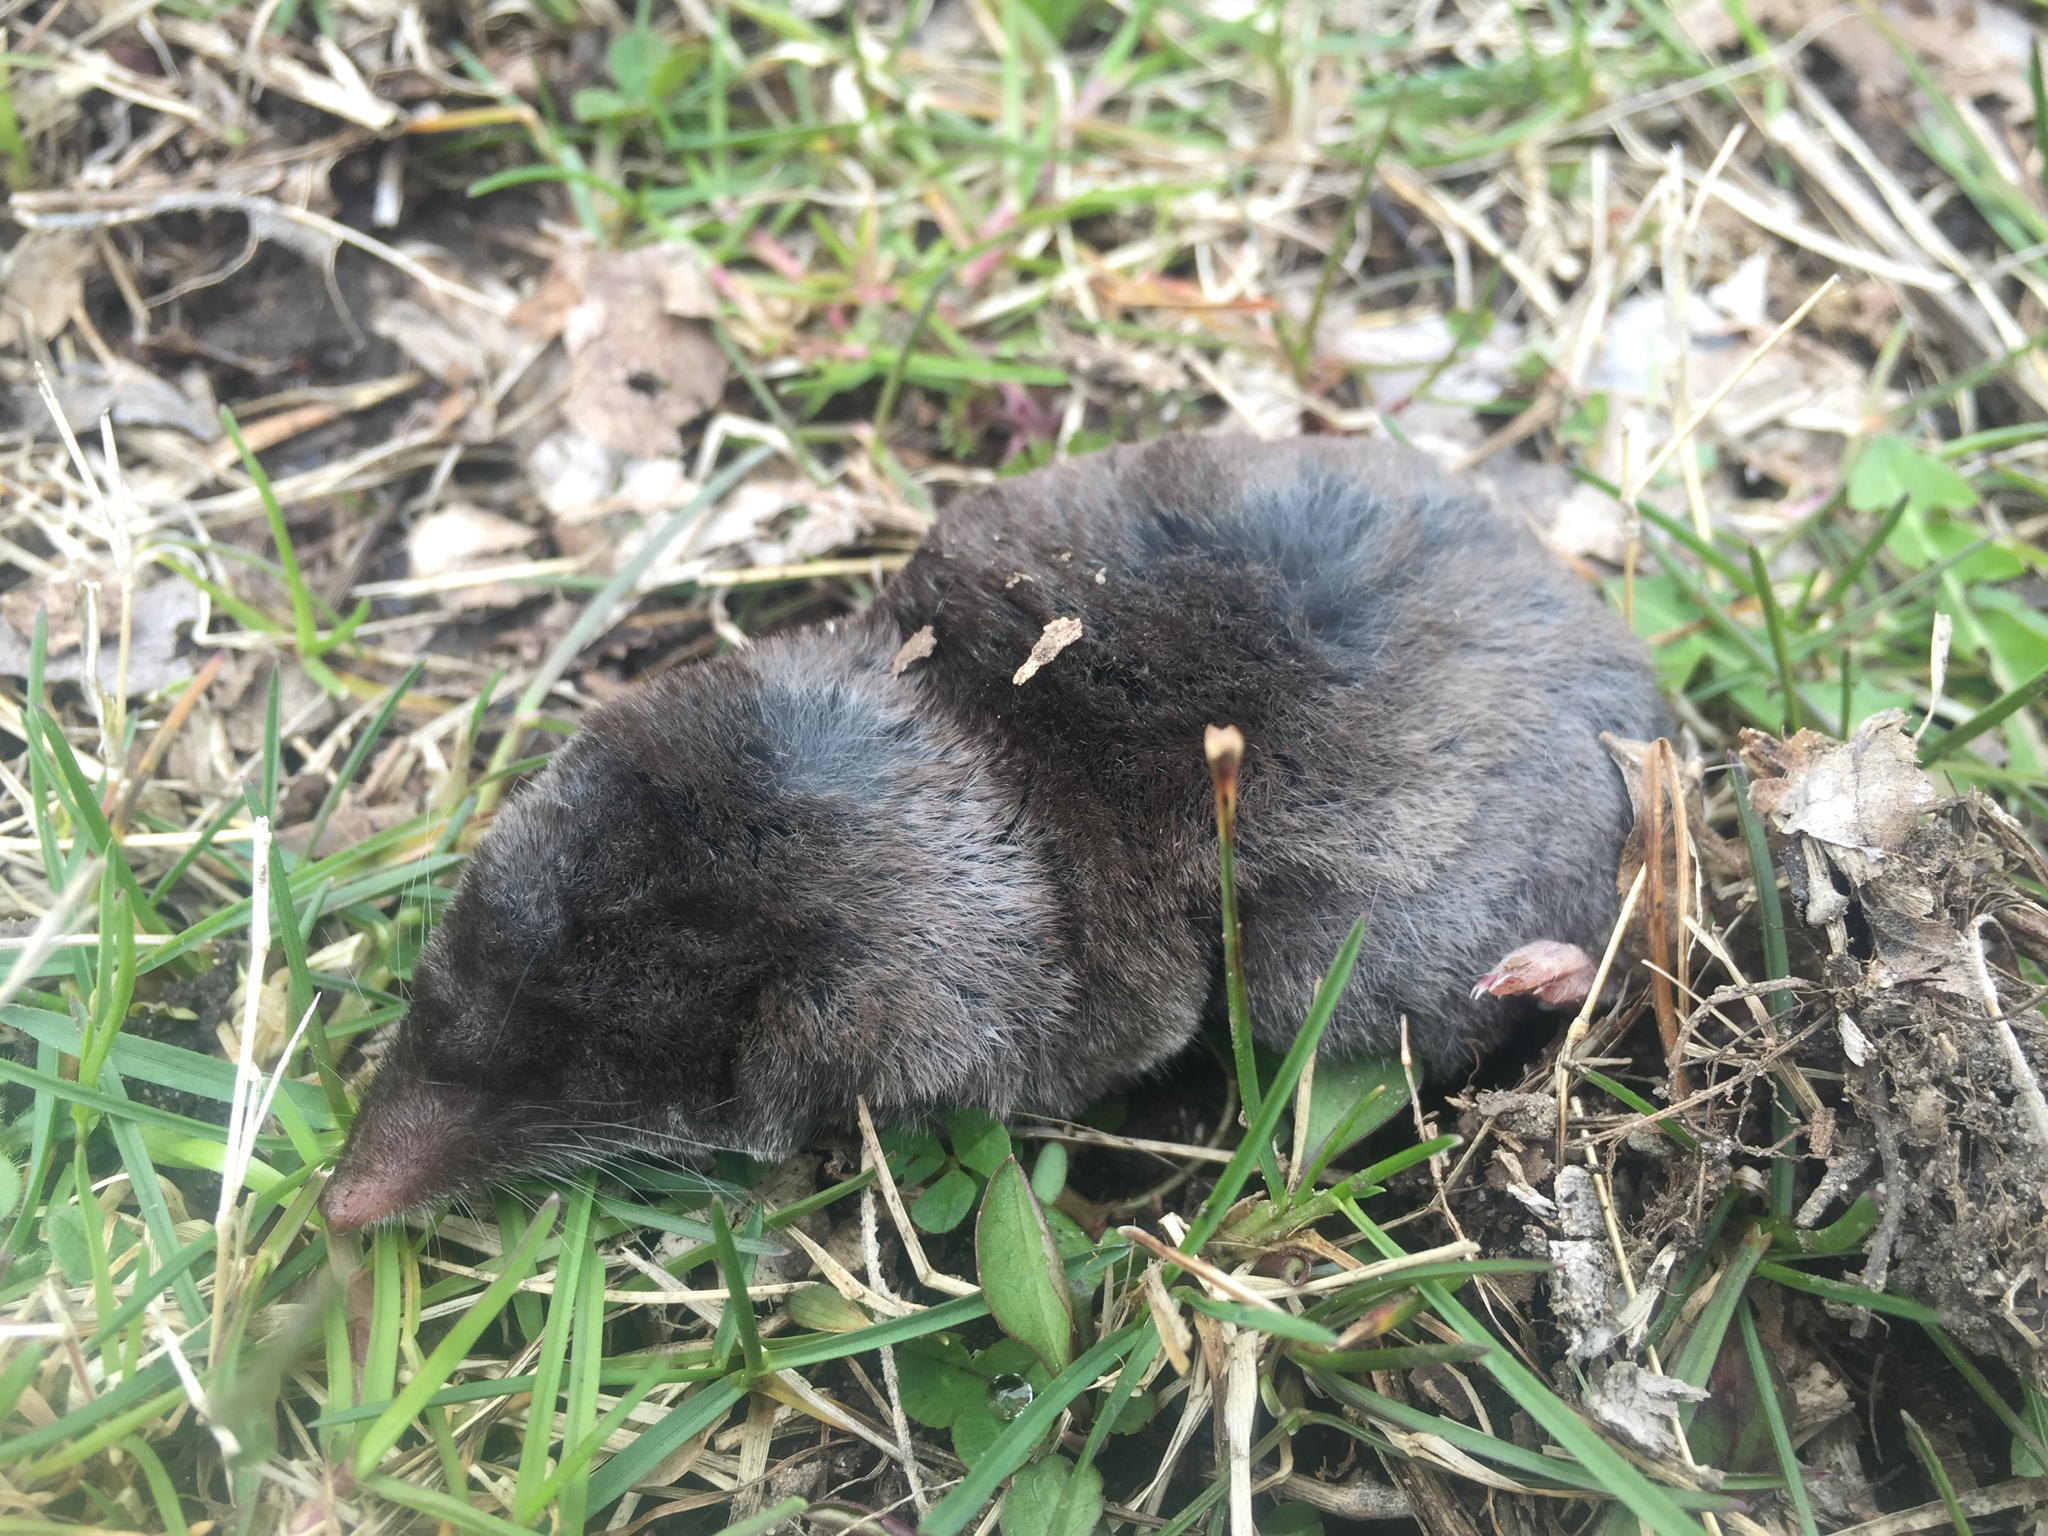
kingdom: Animalia
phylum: Chordata
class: Mammalia
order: Soricomorpha
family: Soricidae
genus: Blarina
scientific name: Blarina brevicauda
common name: Northern short-tailed shrew
